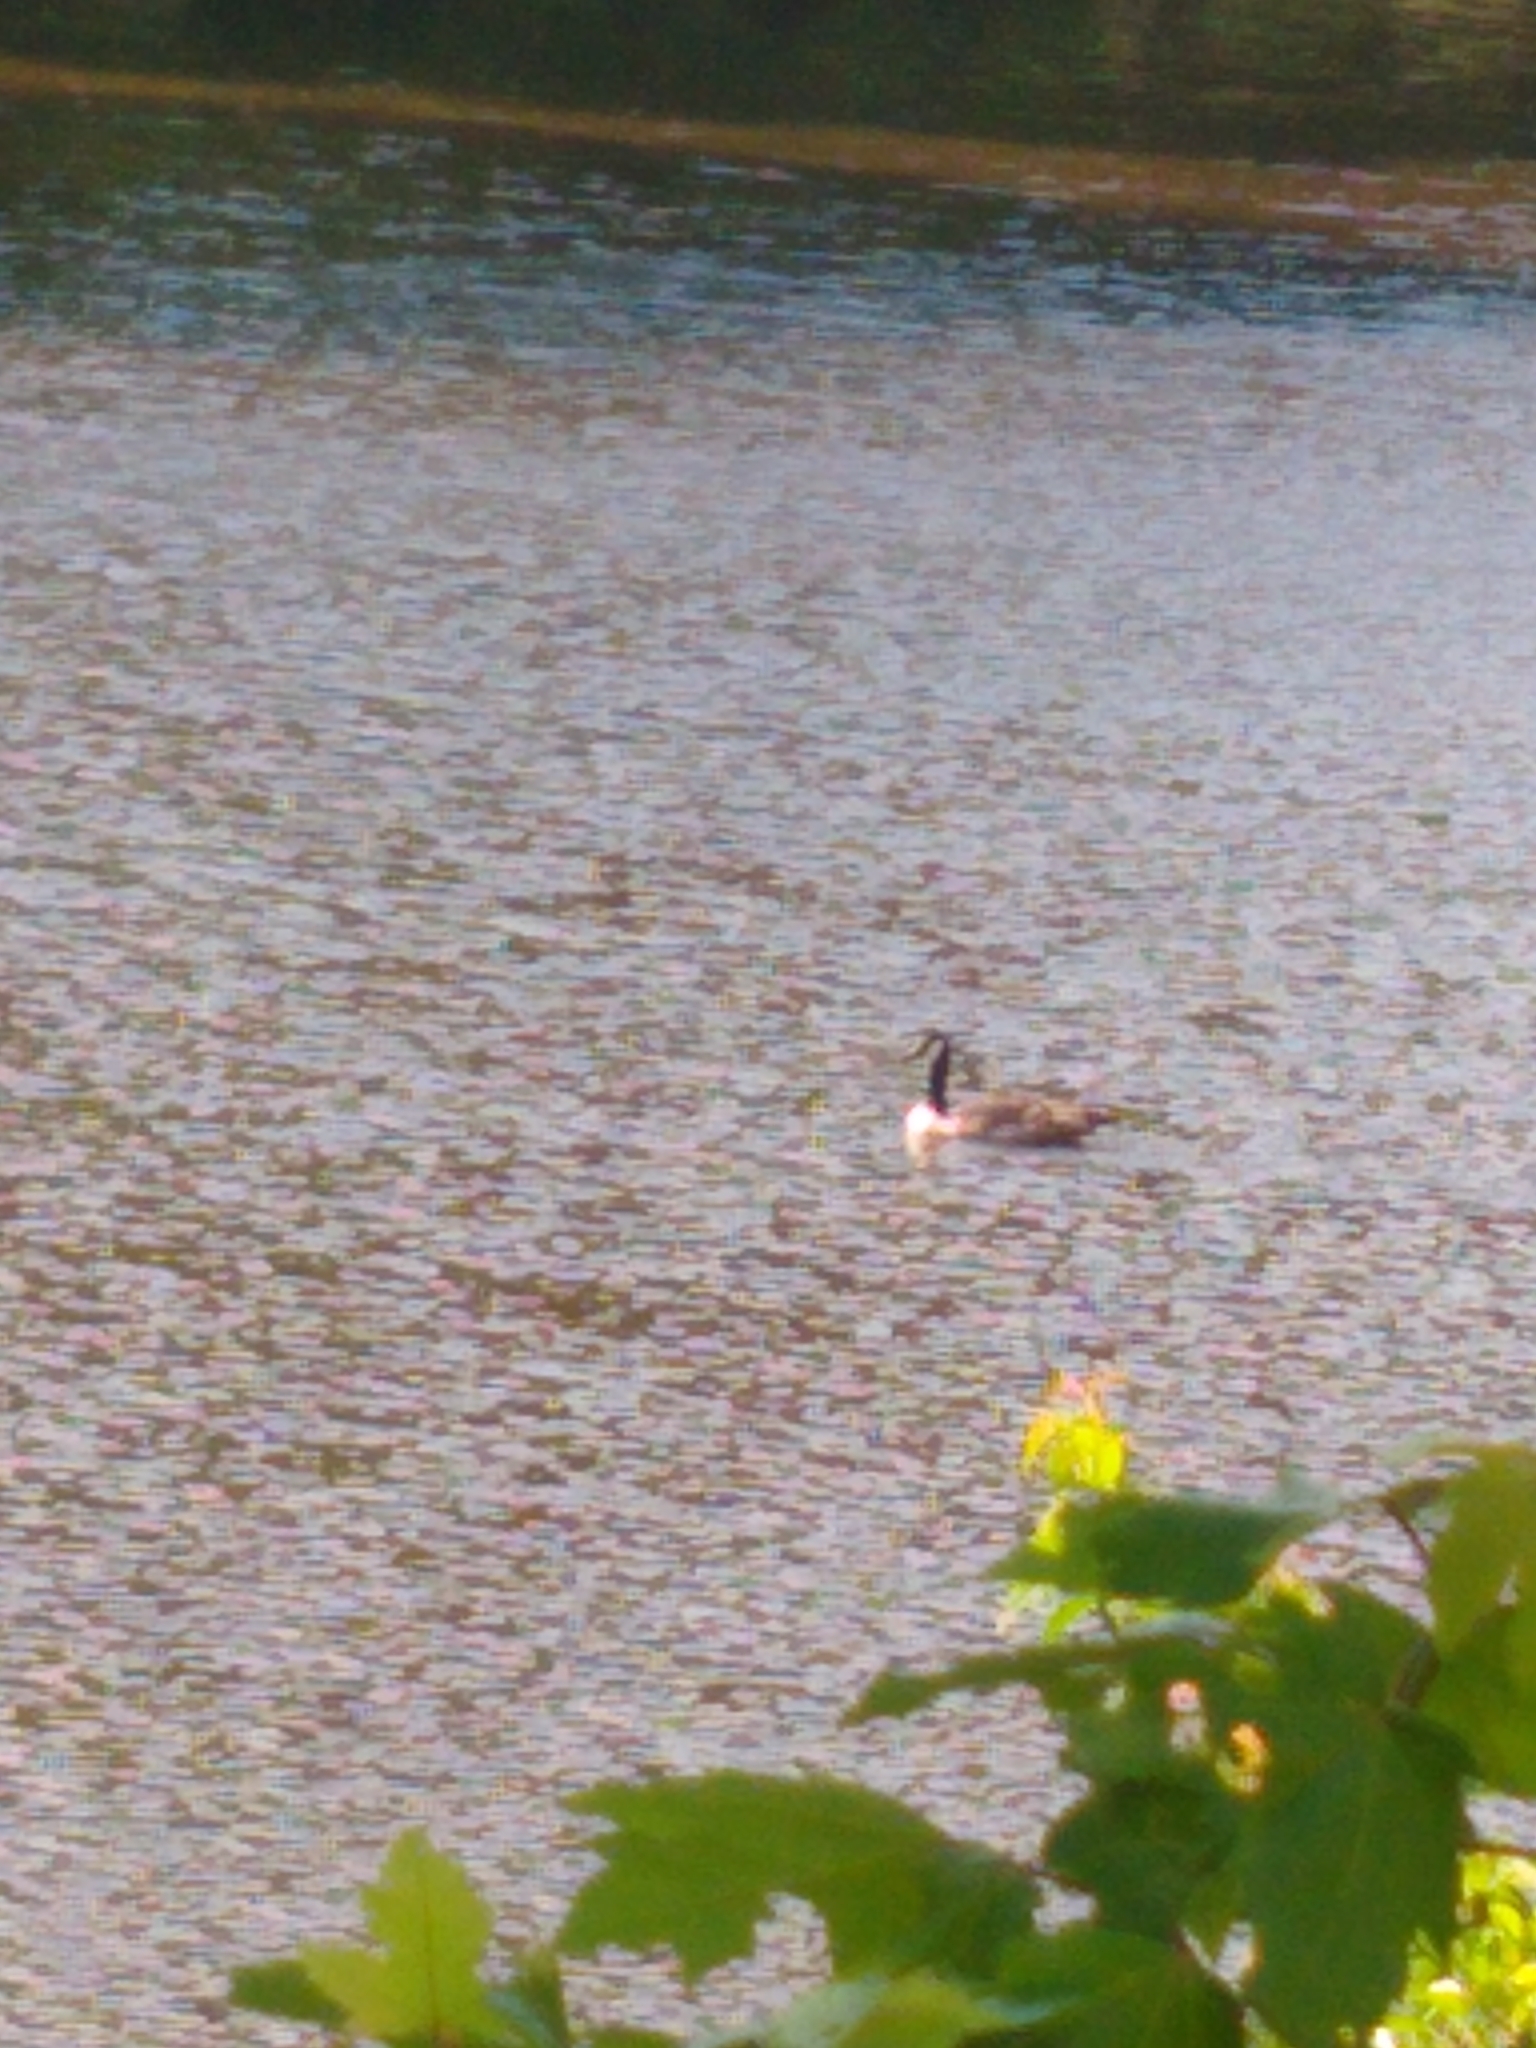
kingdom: Animalia
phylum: Chordata
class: Aves
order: Anseriformes
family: Anatidae
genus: Branta
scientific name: Branta canadensis
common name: Canada goose
